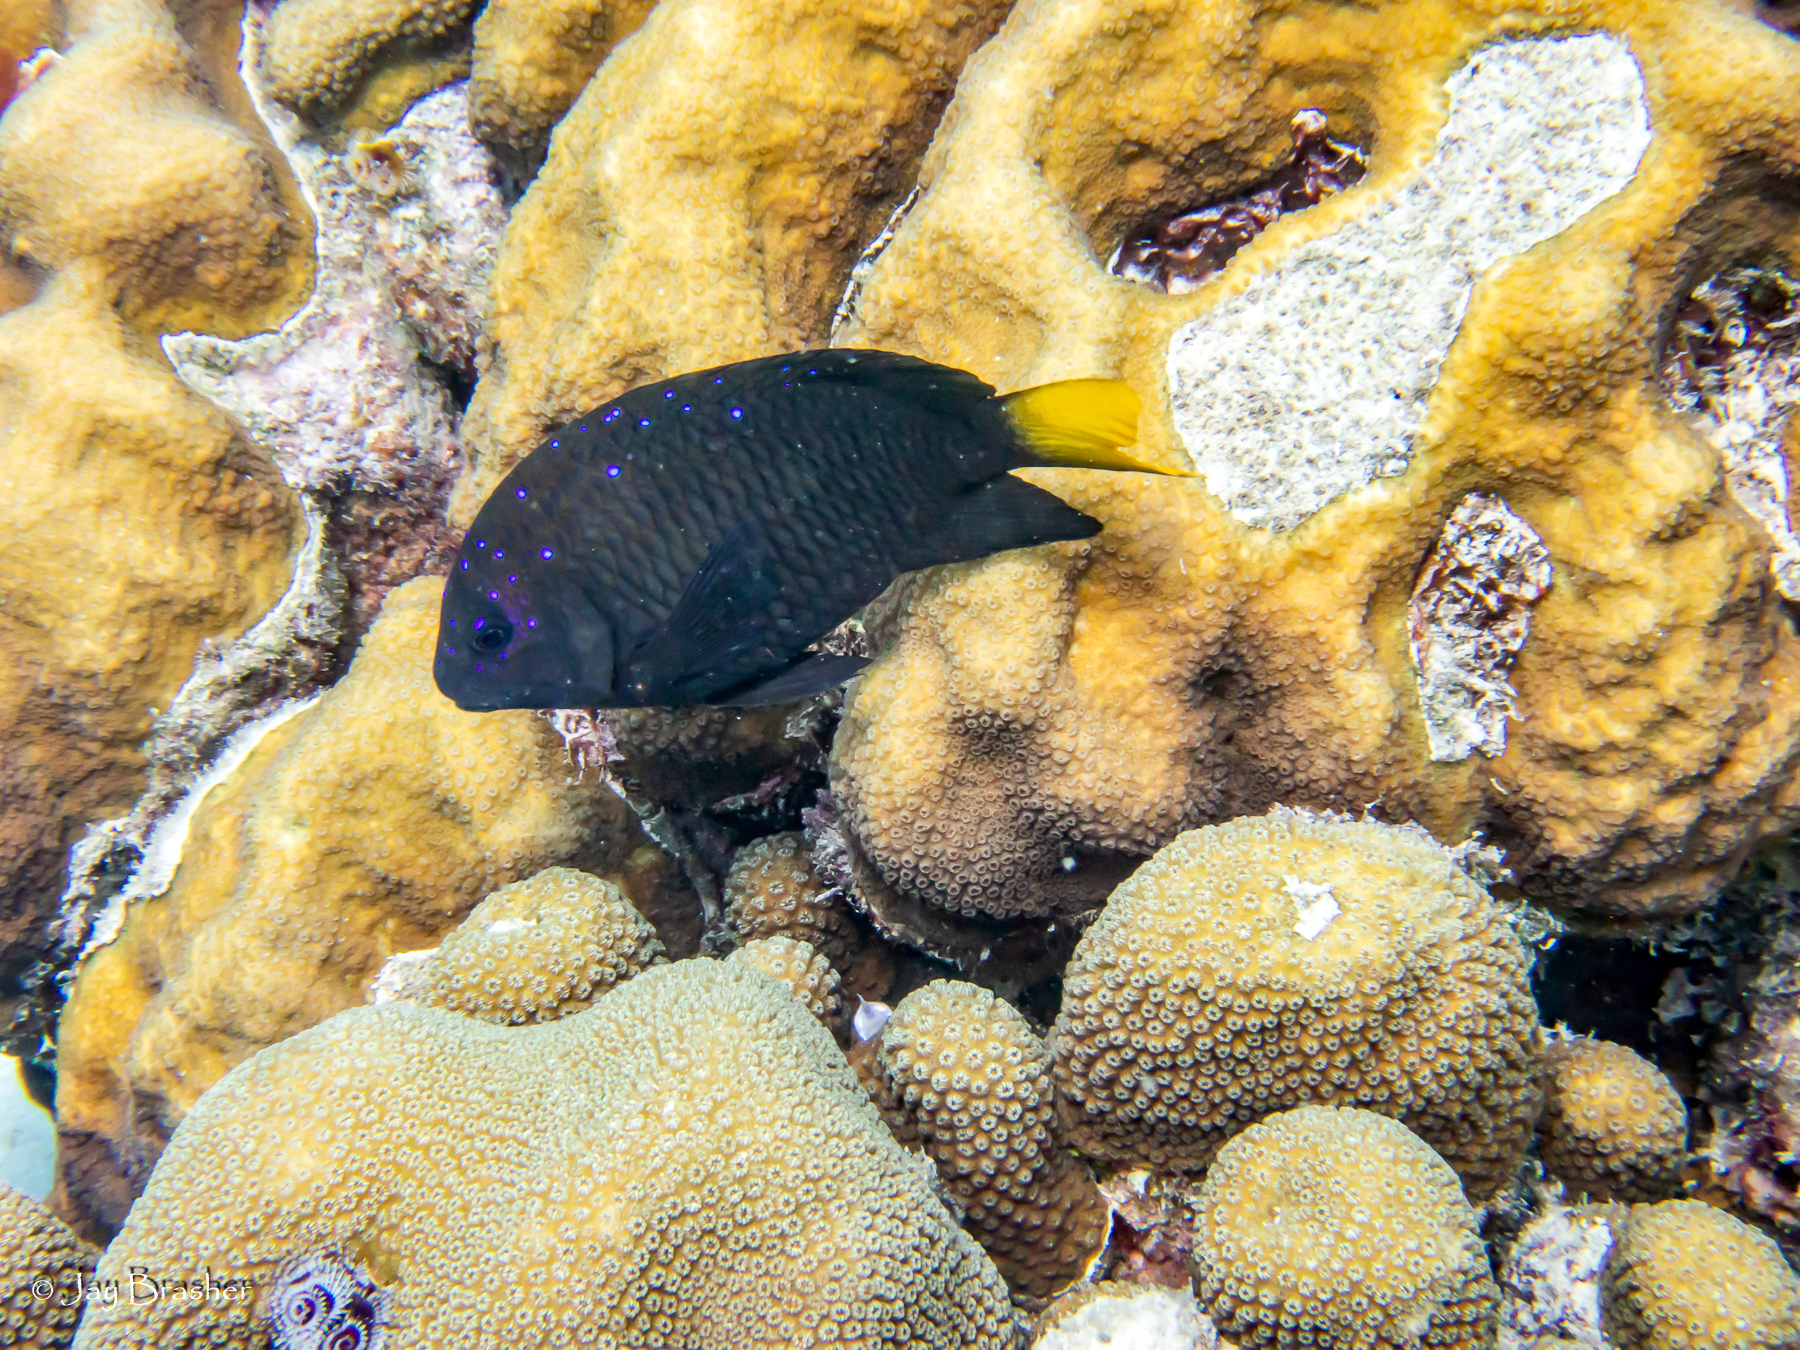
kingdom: Animalia
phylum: Chordata
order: Perciformes
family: Pomacentridae
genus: Microspathodon
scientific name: Microspathodon chrysurus
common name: Yellowtail damselfish
